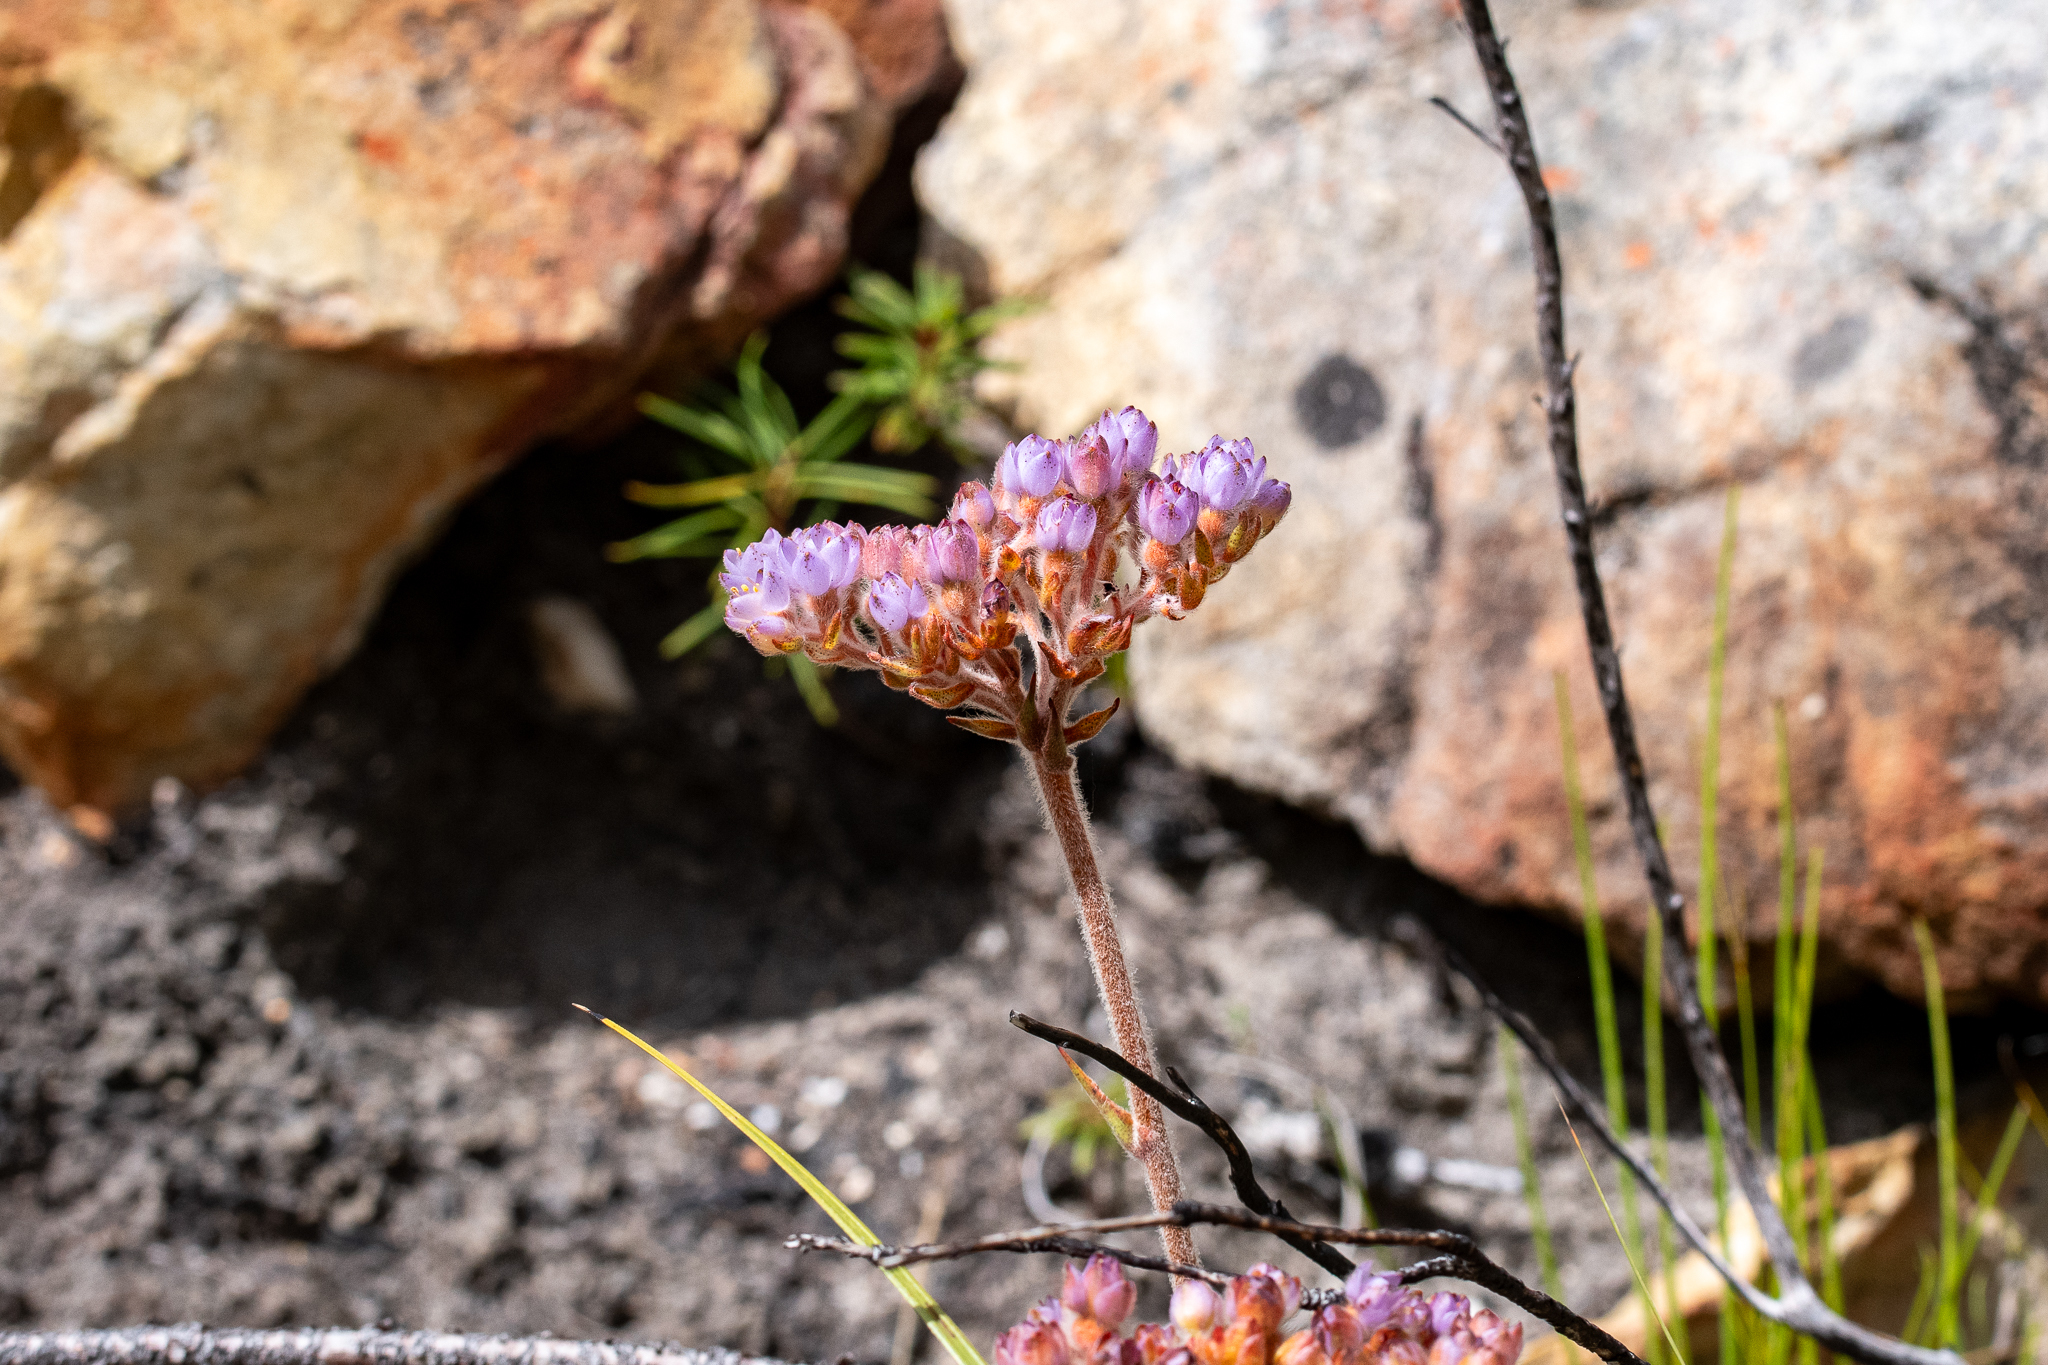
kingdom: Plantae
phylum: Tracheophyta
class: Liliopsida
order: Commelinales
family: Haemodoraceae
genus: Dilatris
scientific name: Dilatris pillansii
